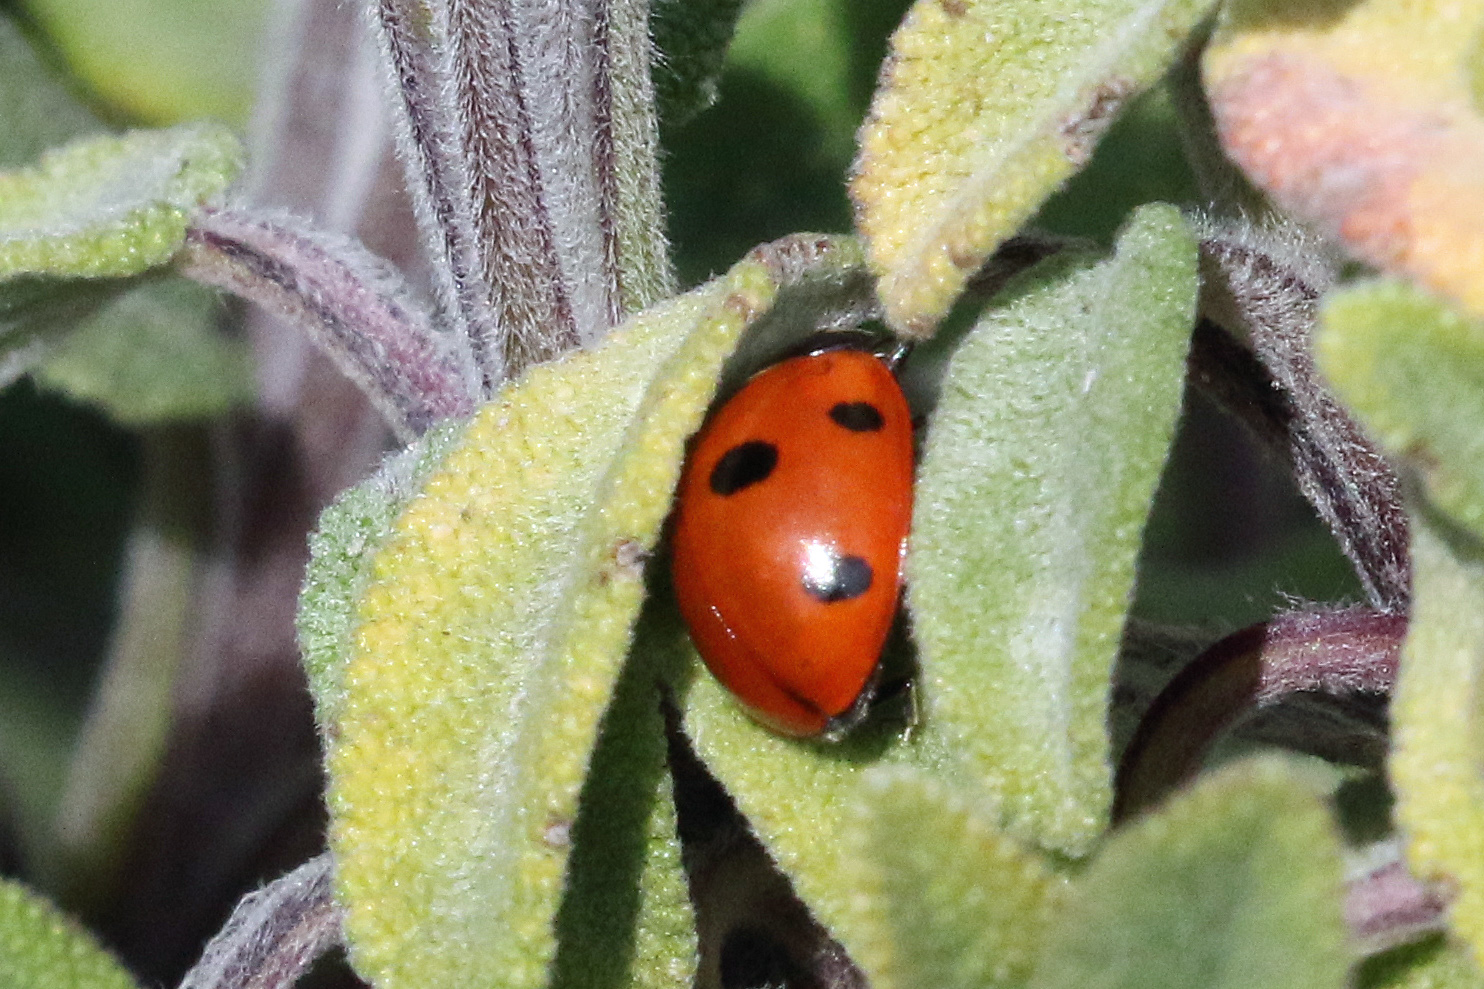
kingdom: Animalia
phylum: Arthropoda
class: Insecta
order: Coleoptera
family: Coccinellidae
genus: Coccinella
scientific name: Coccinella septempunctata
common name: Sevenspotted lady beetle
